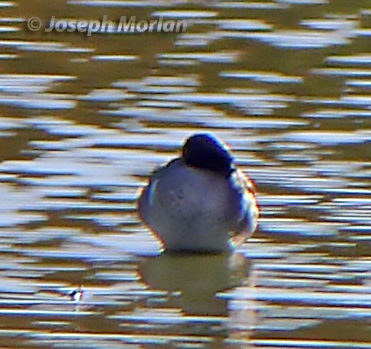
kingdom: Animalia
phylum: Chordata
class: Aves
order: Anseriformes
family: Anatidae
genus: Anas
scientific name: Anas carolinensis
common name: Green-winged teal
